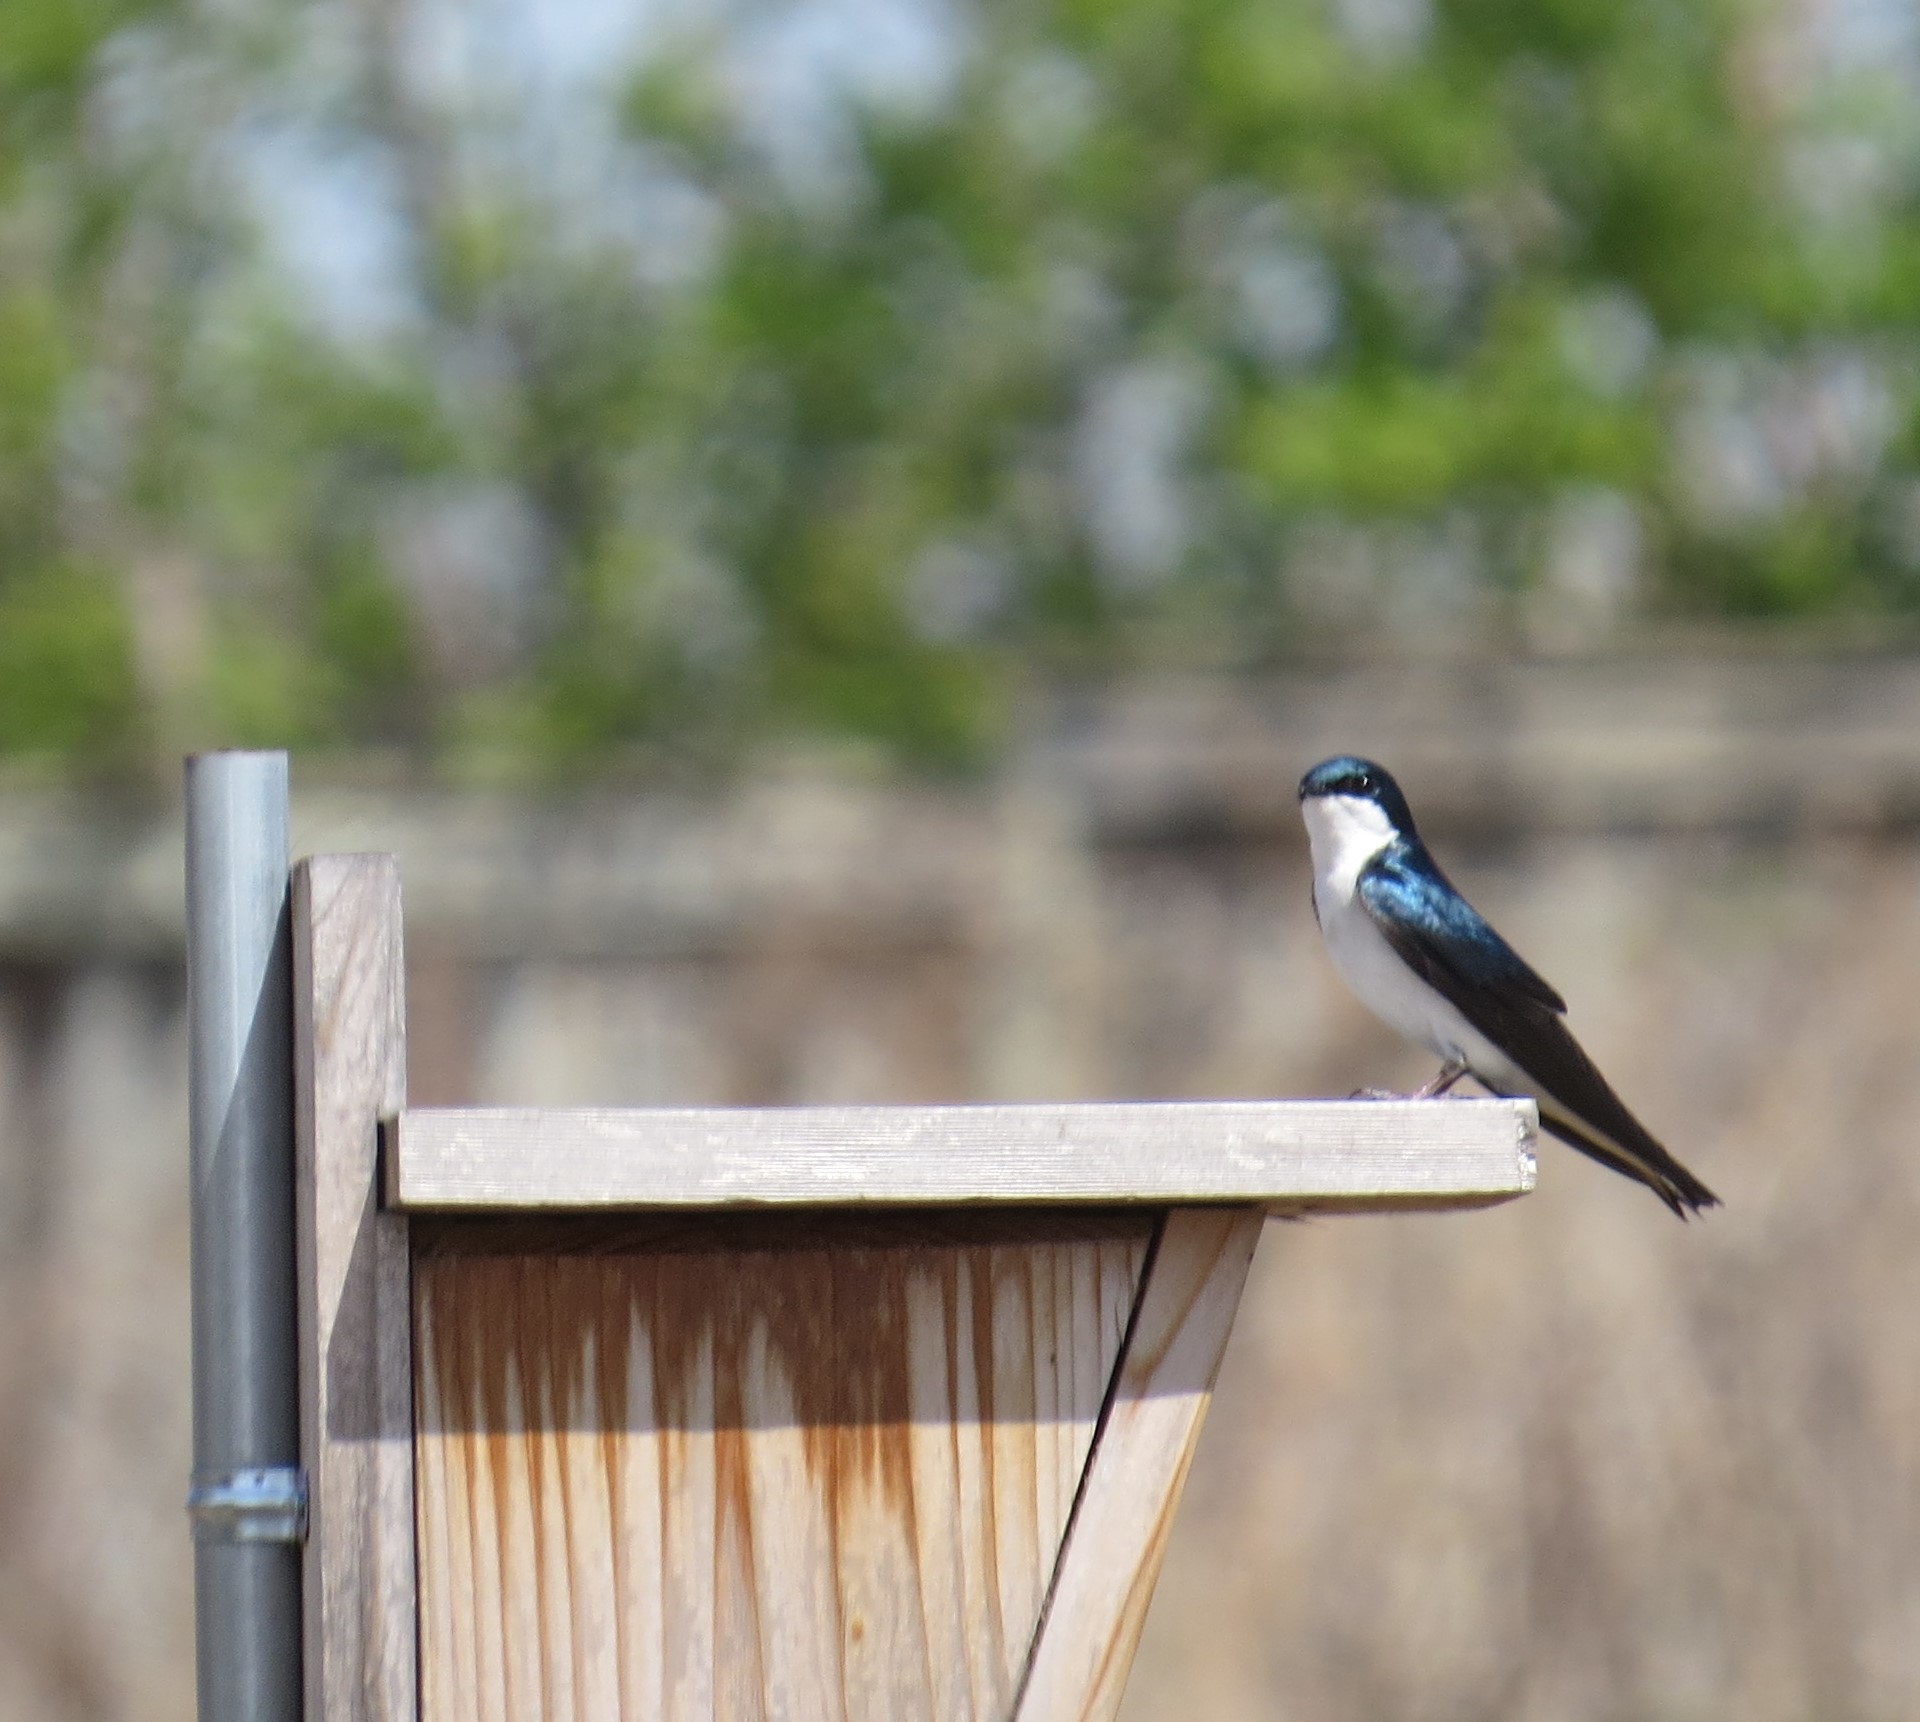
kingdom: Animalia
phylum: Chordata
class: Aves
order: Passeriformes
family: Hirundinidae
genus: Tachycineta
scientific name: Tachycineta bicolor
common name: Tree swallow
